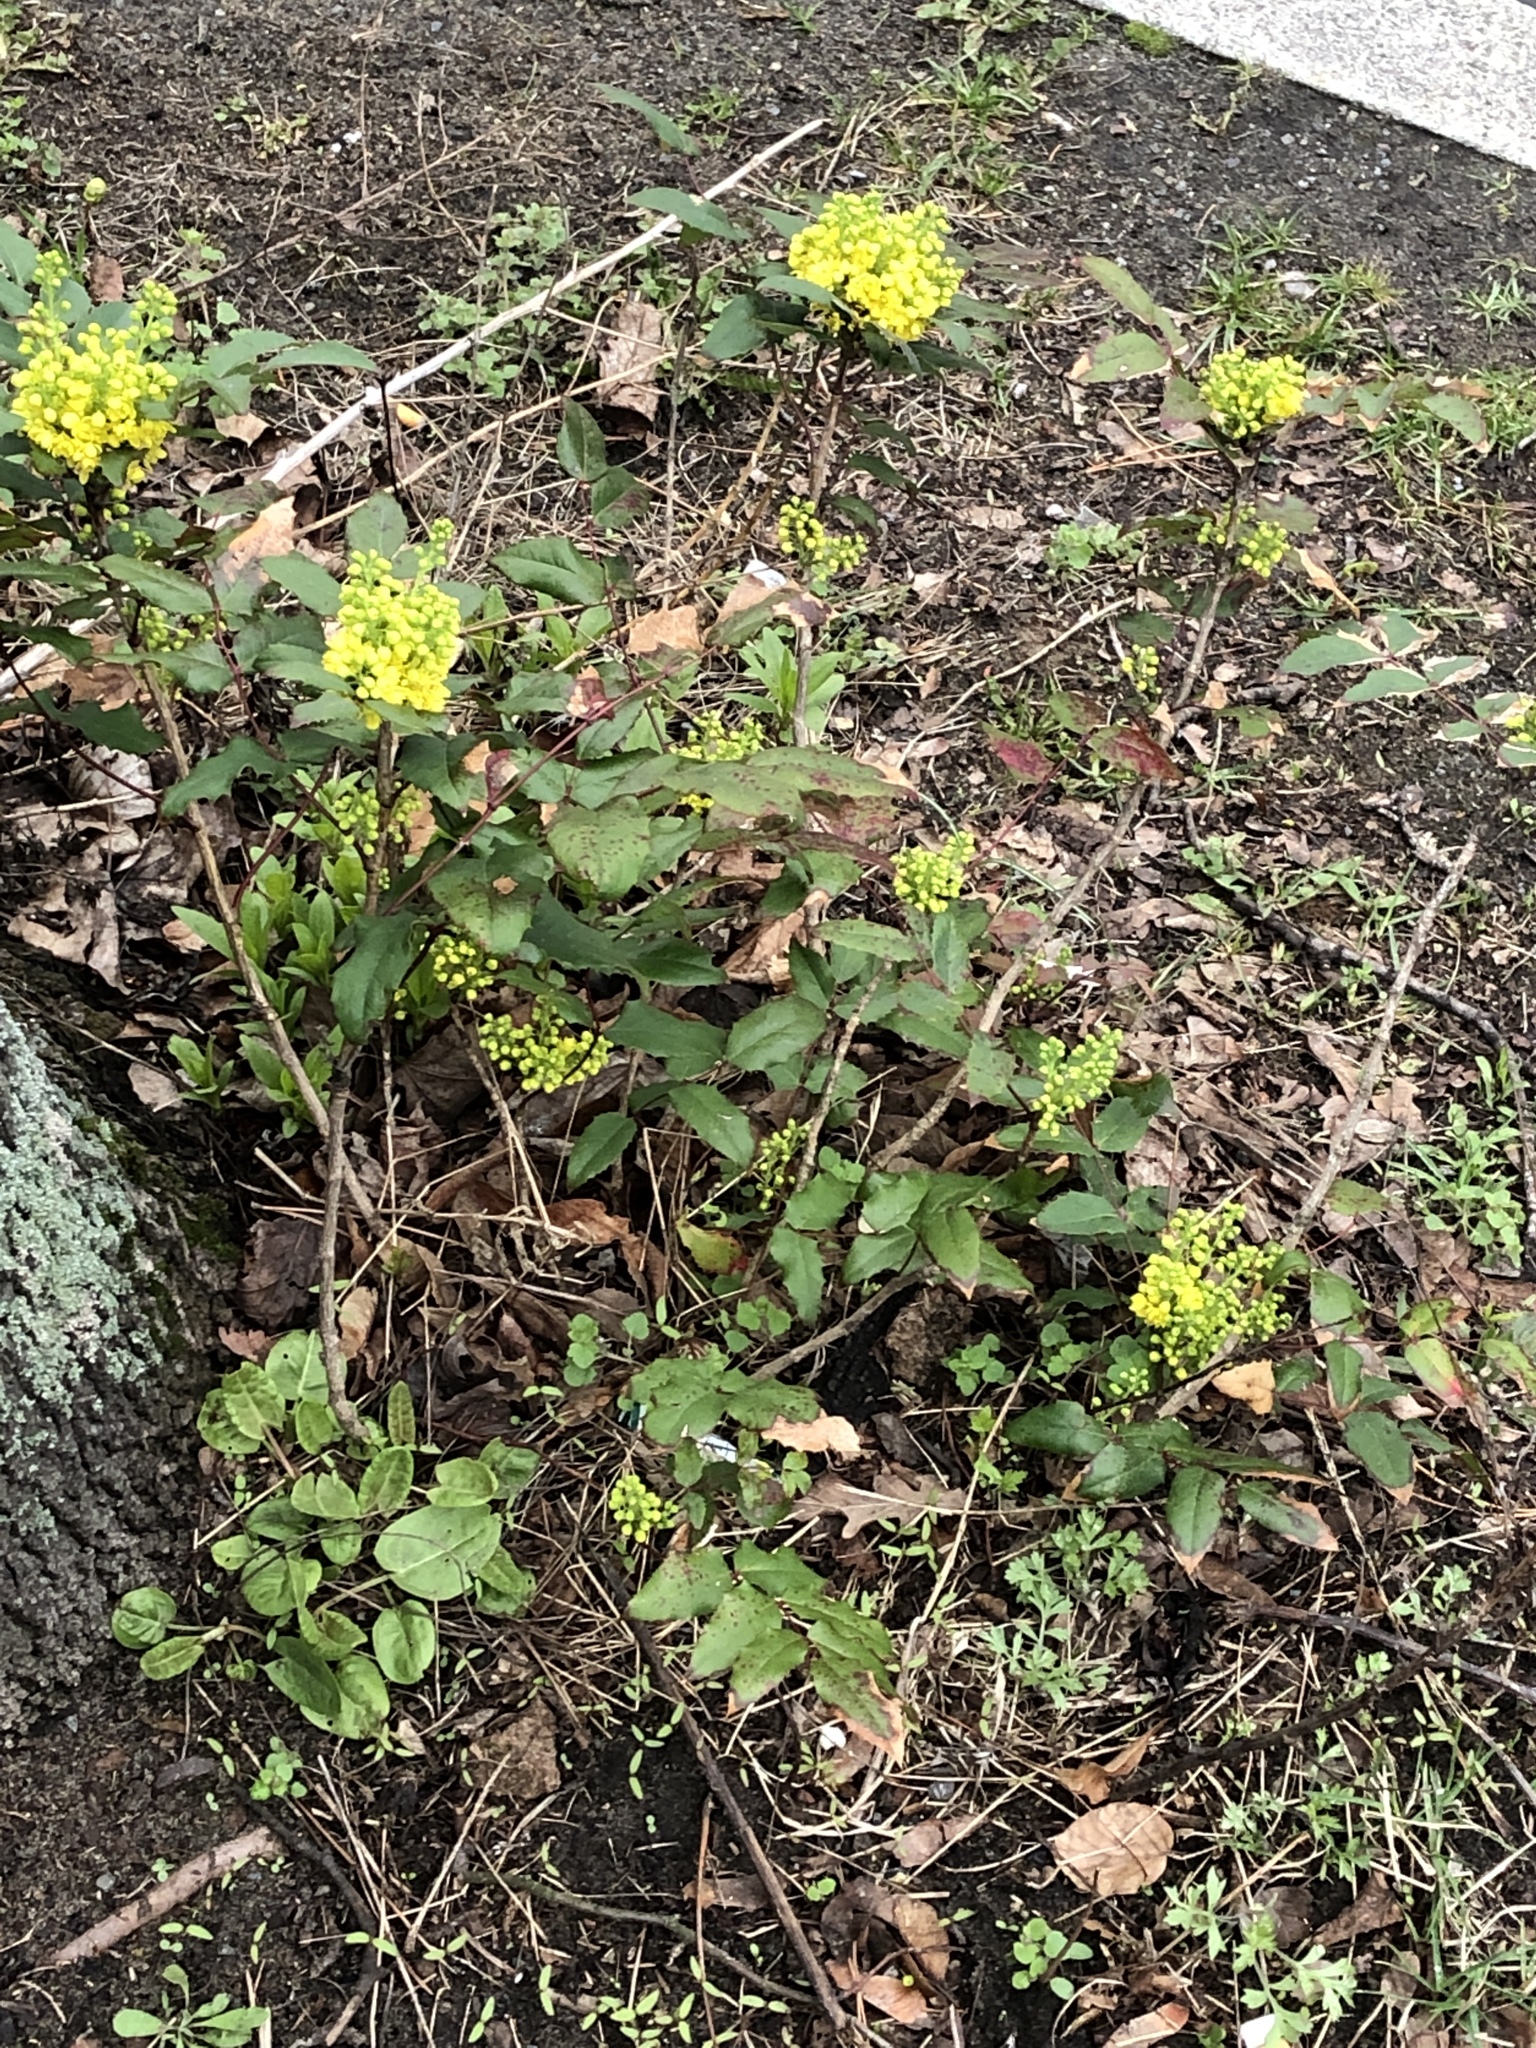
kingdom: Plantae
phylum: Tracheophyta
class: Magnoliopsida
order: Ranunculales
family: Berberidaceae
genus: Mahonia
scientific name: Mahonia aquifolium
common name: Oregon-grape
